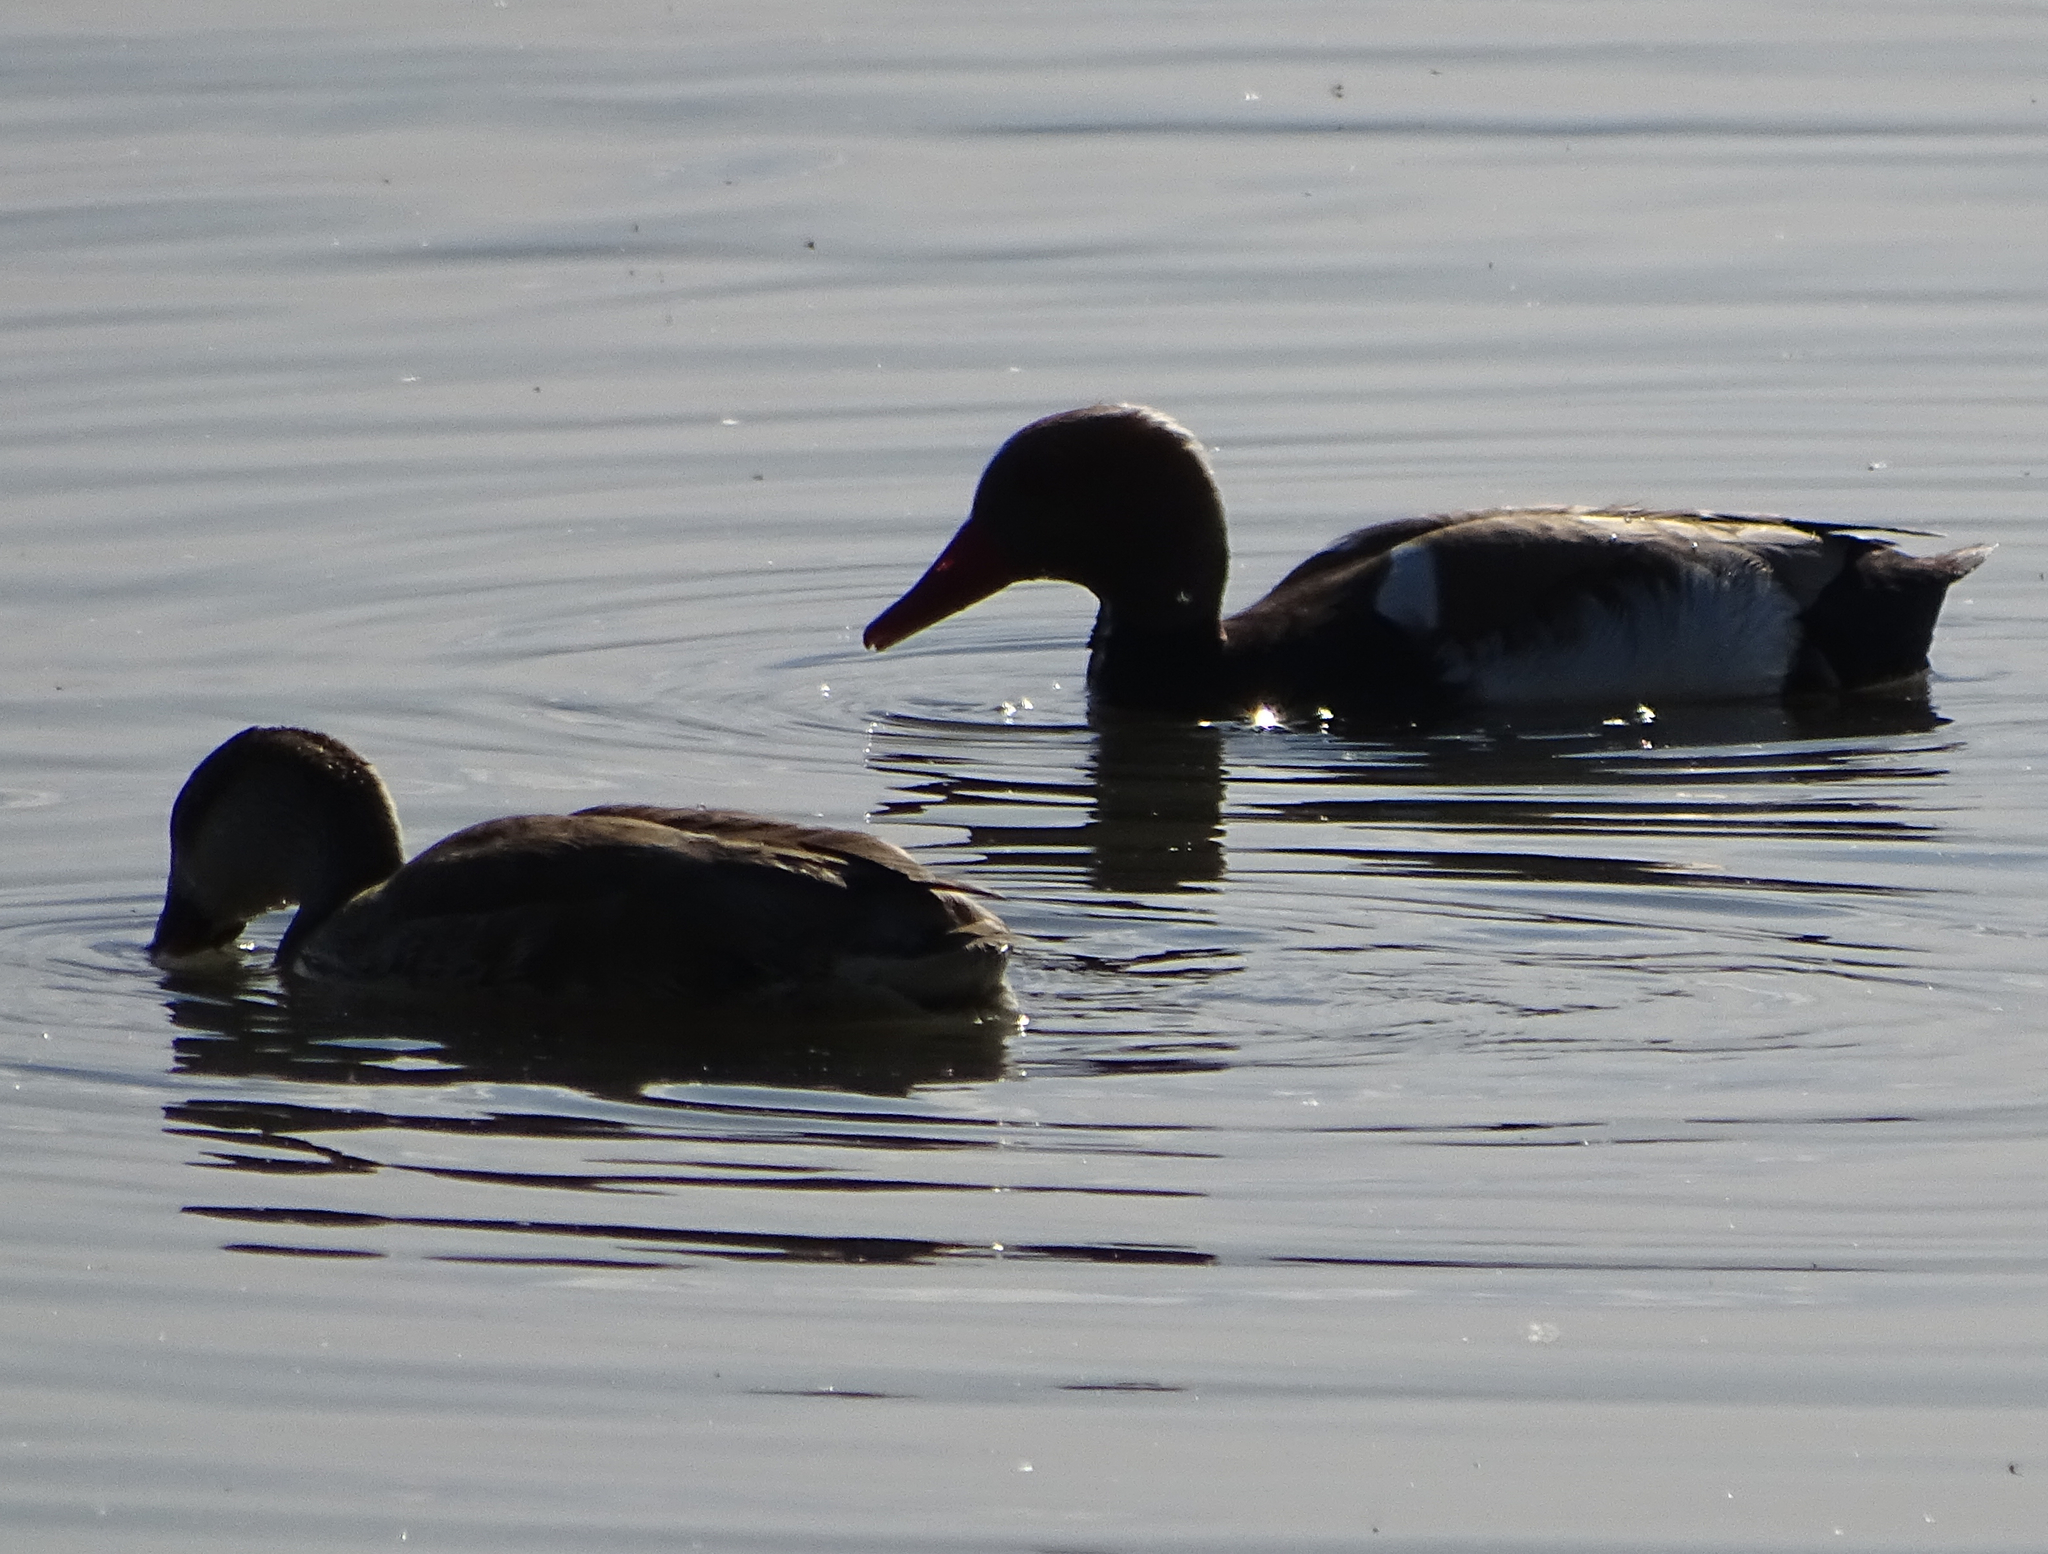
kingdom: Animalia
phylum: Chordata
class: Aves
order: Anseriformes
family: Anatidae
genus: Netta
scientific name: Netta rufina
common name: Red-crested pochard
